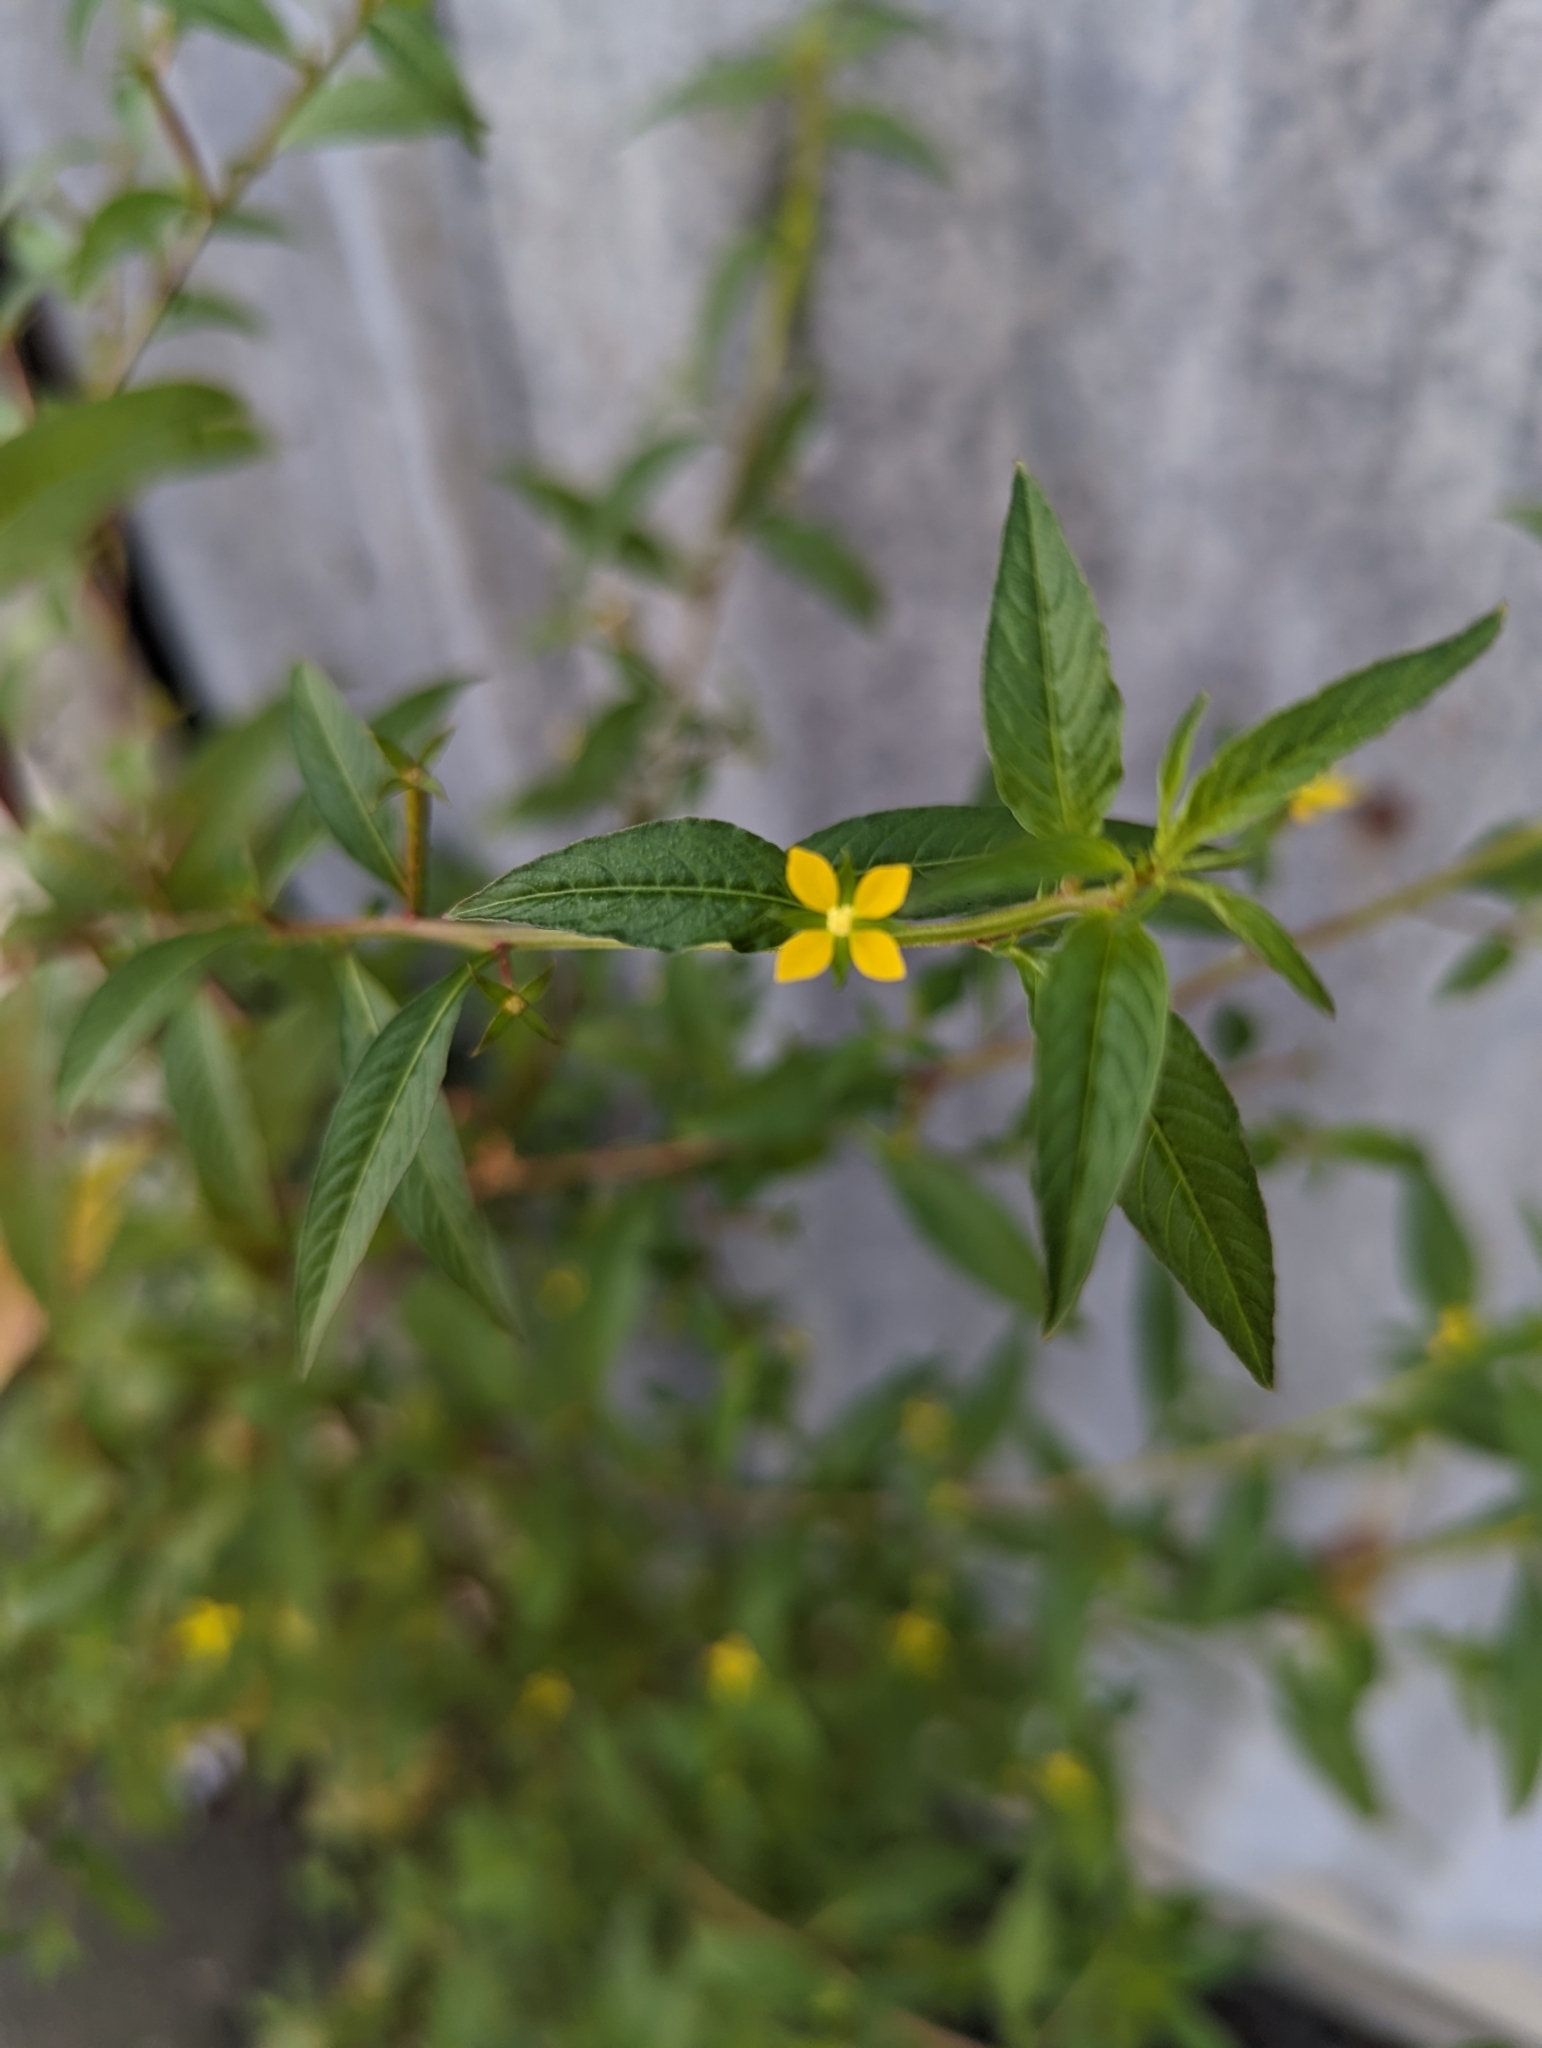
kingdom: Plantae
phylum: Tracheophyta
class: Magnoliopsida
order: Myrtales
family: Onagraceae
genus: Ludwigia
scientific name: Ludwigia hyssopifolia
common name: Linear leaf water primrose
